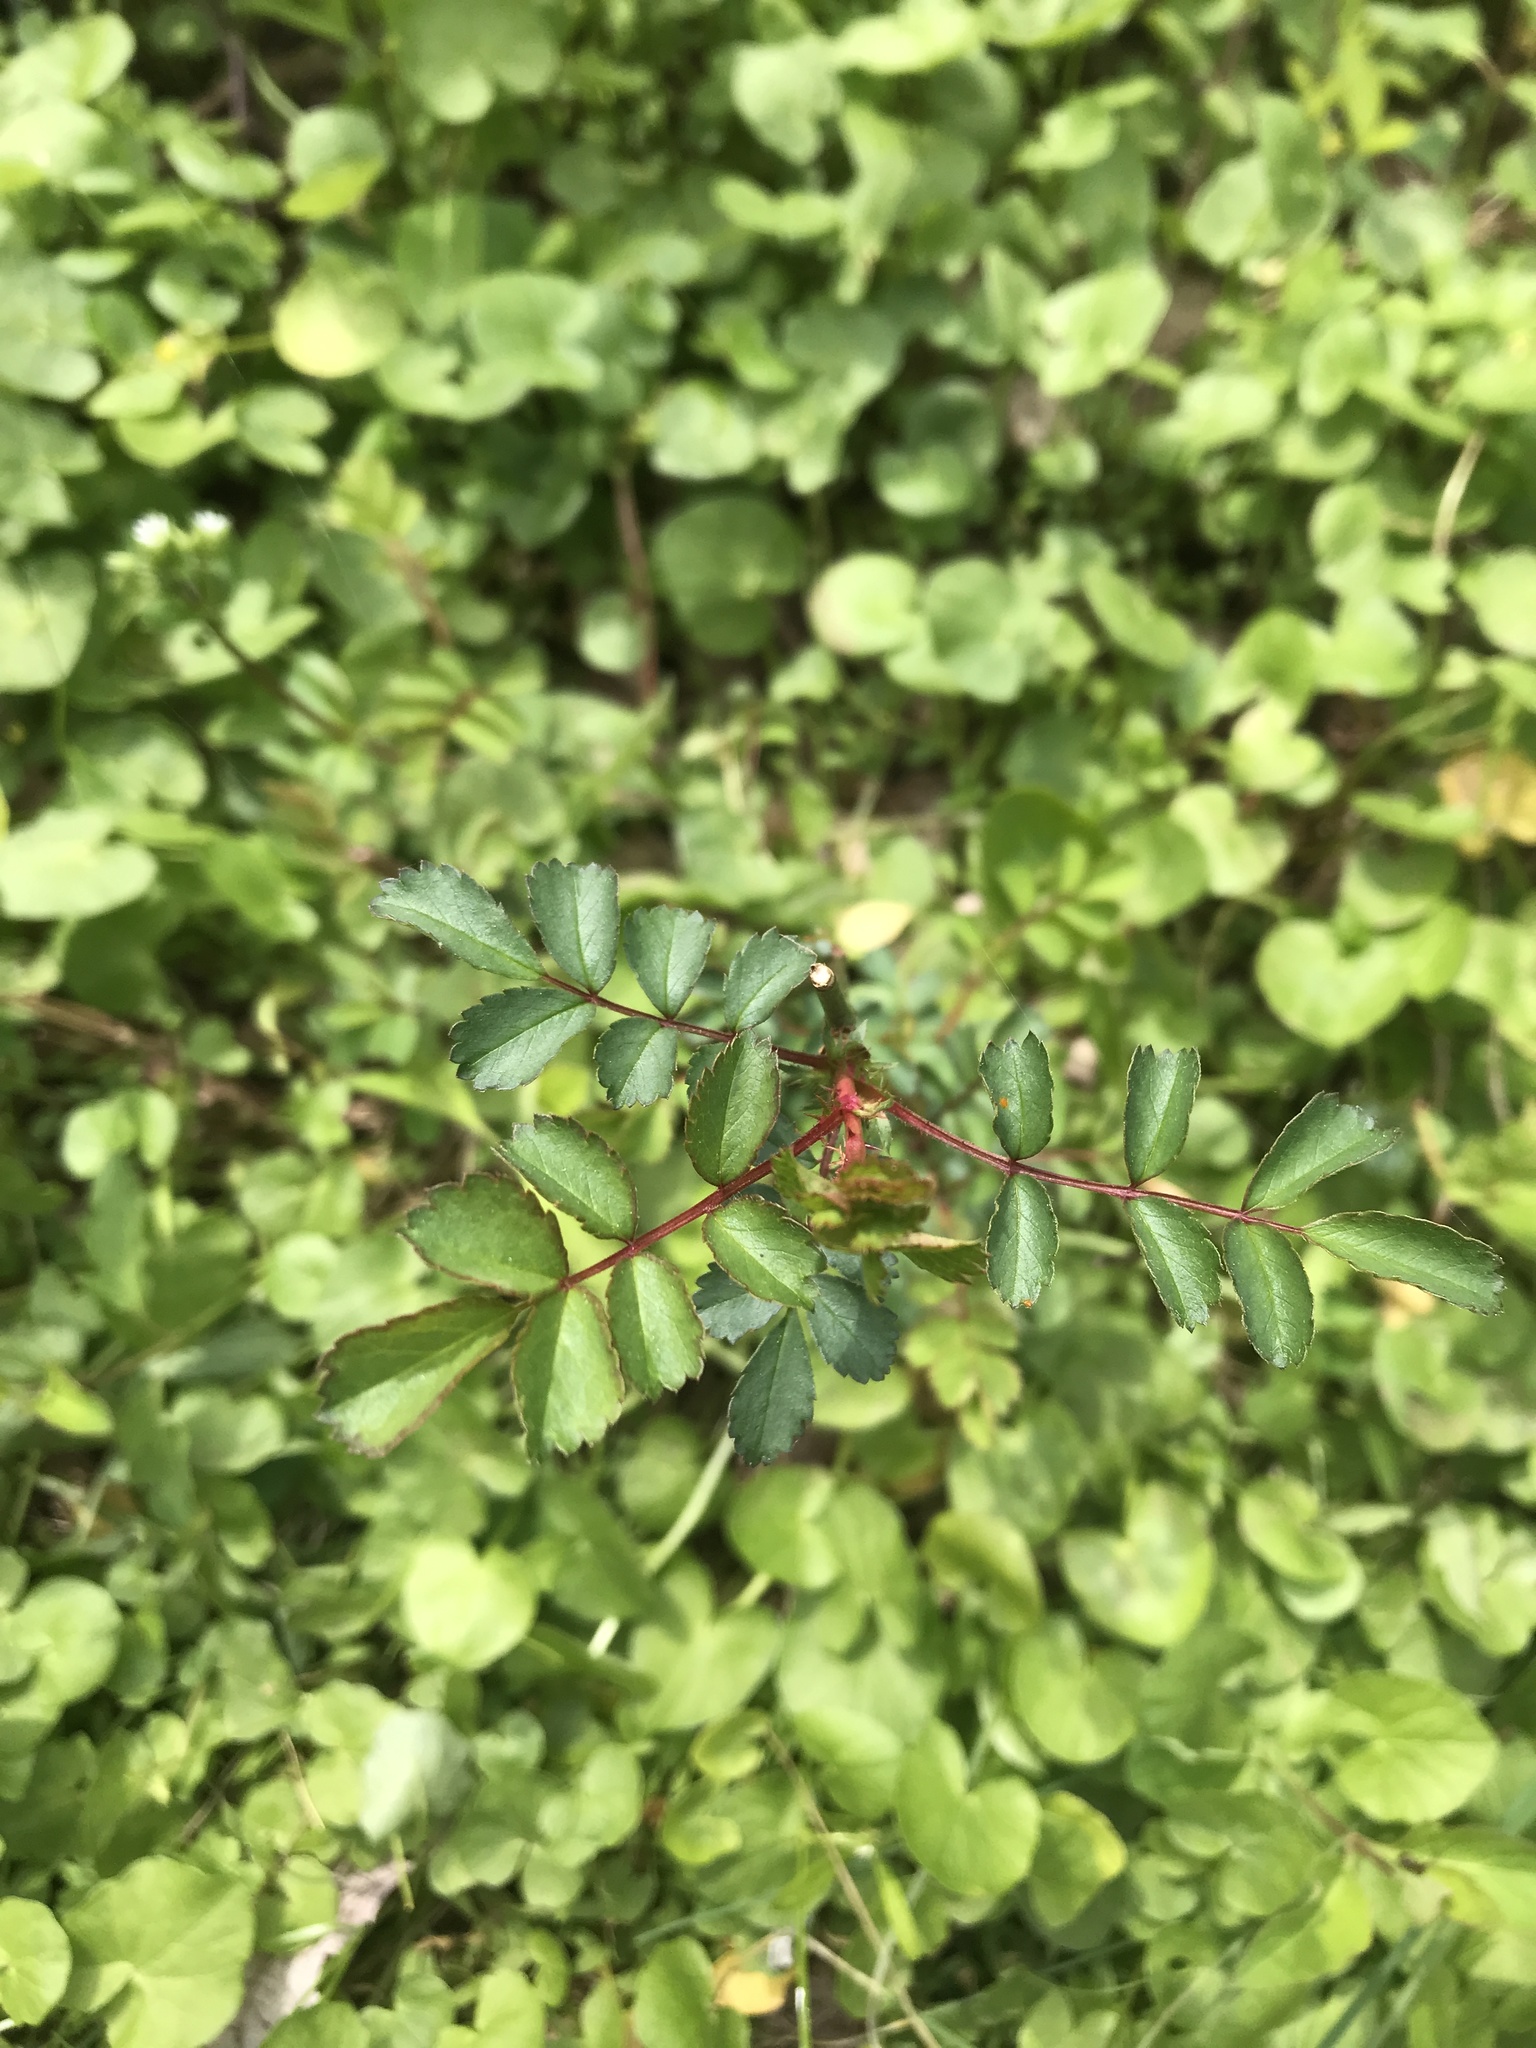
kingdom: Plantae
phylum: Tracheophyta
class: Magnoliopsida
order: Rosales
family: Rosaceae
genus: Rosa
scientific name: Rosa multiflora
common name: Multiflora rose
